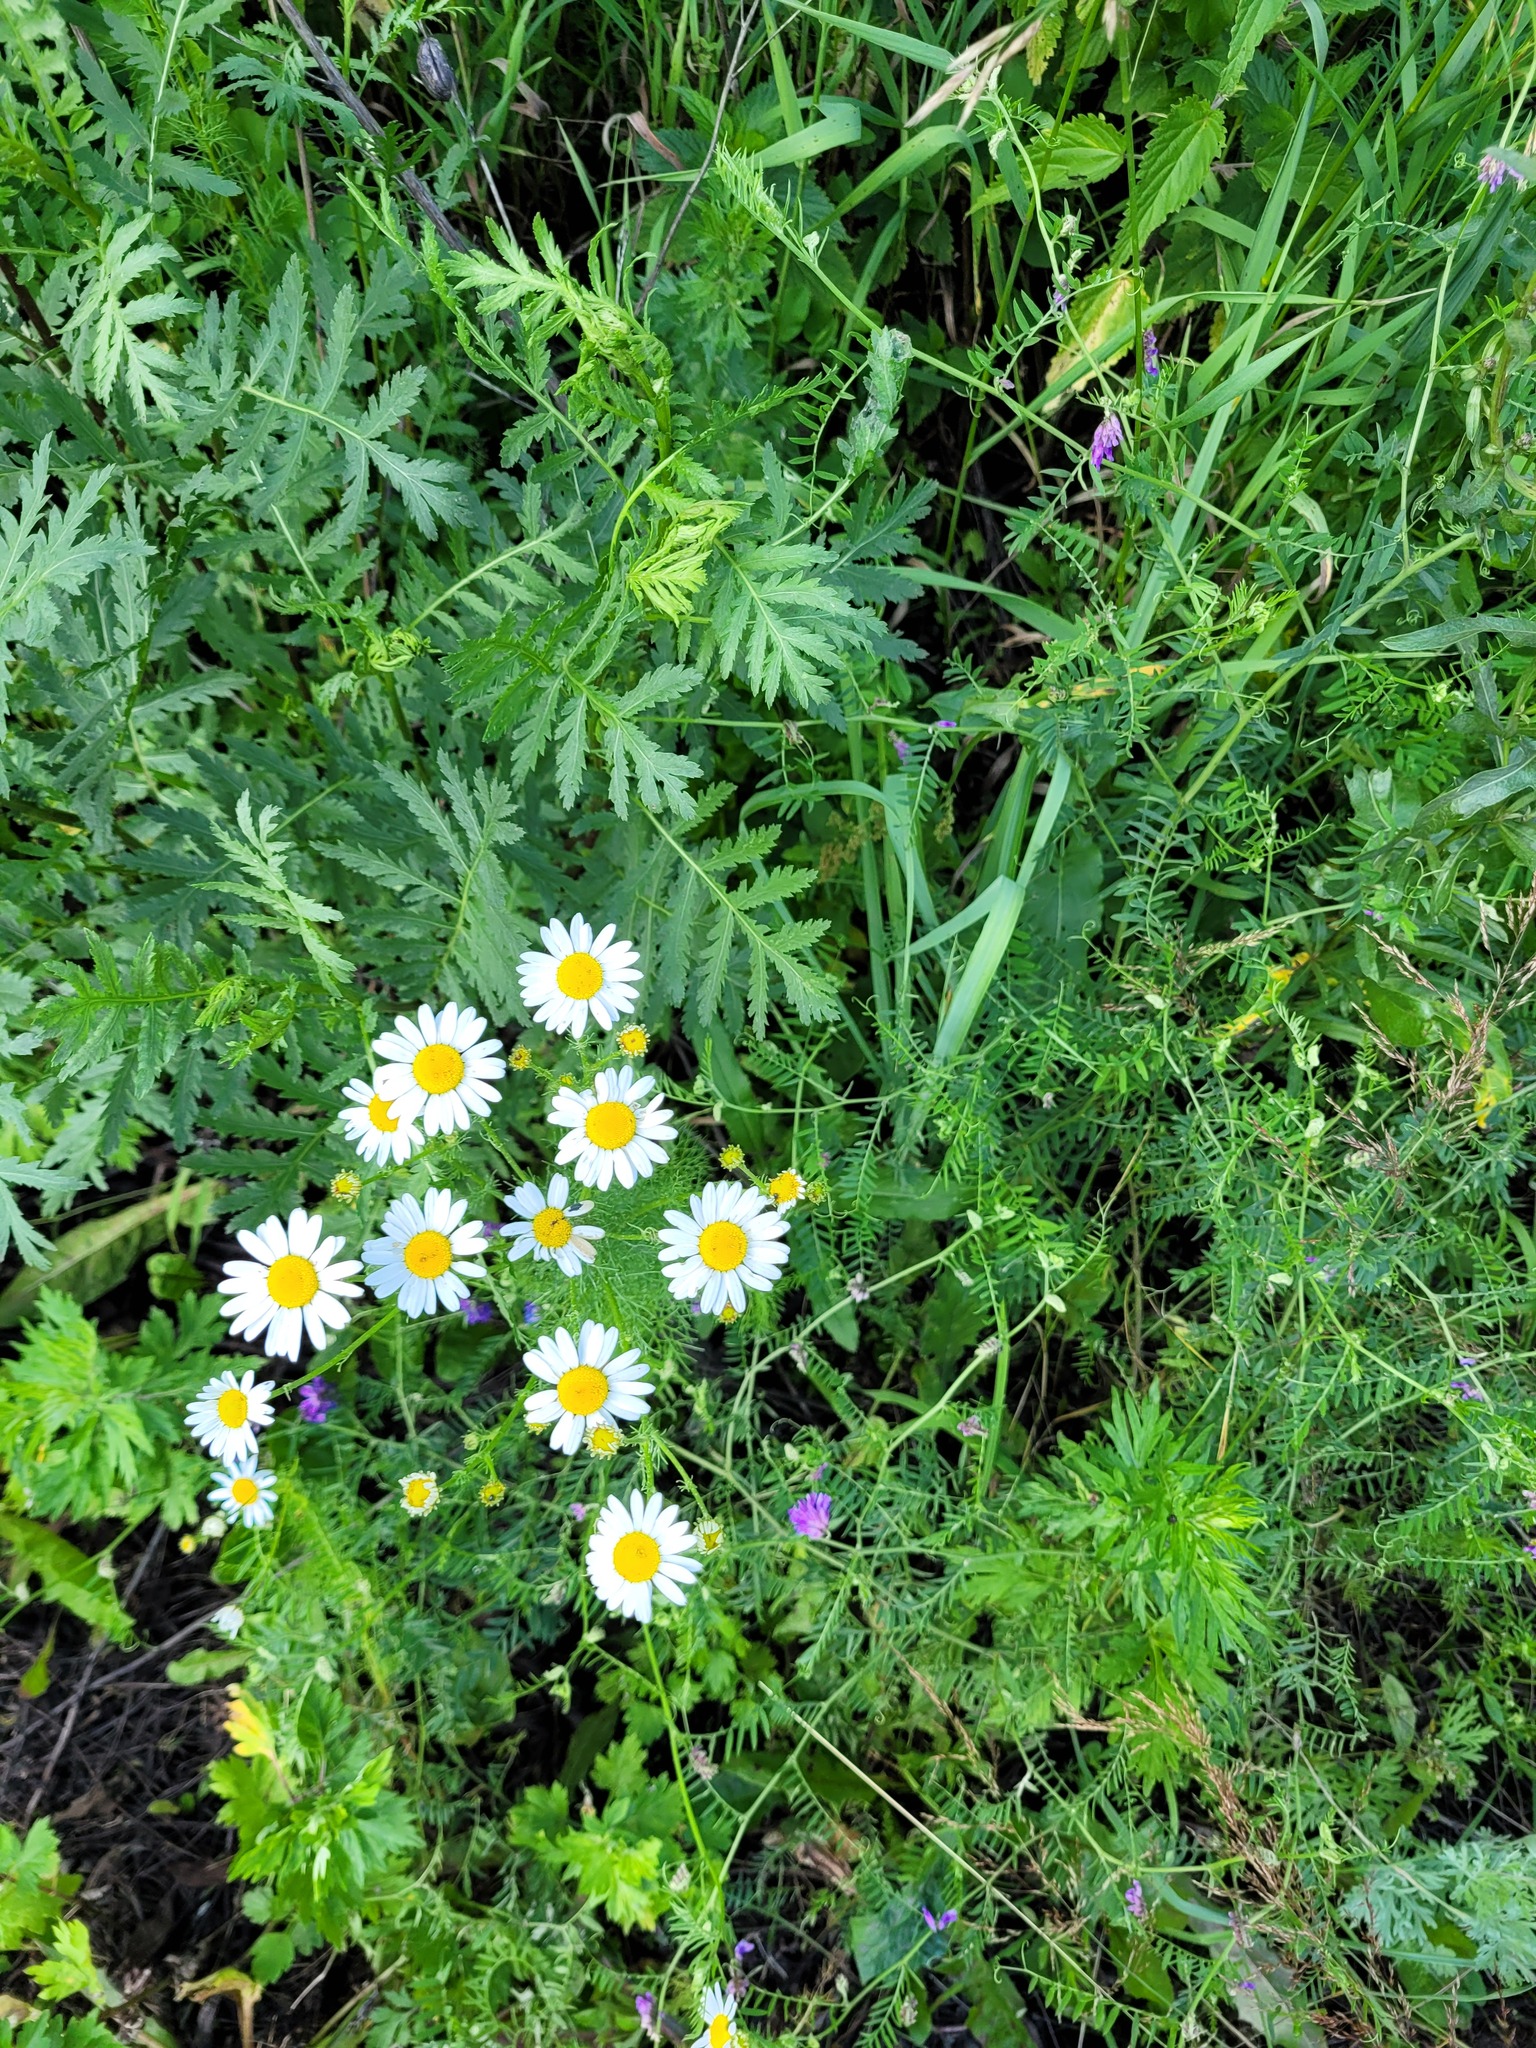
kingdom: Plantae
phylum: Tracheophyta
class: Magnoliopsida
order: Asterales
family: Asteraceae
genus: Tripleurospermum
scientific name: Tripleurospermum inodorum
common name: Scentless mayweed
